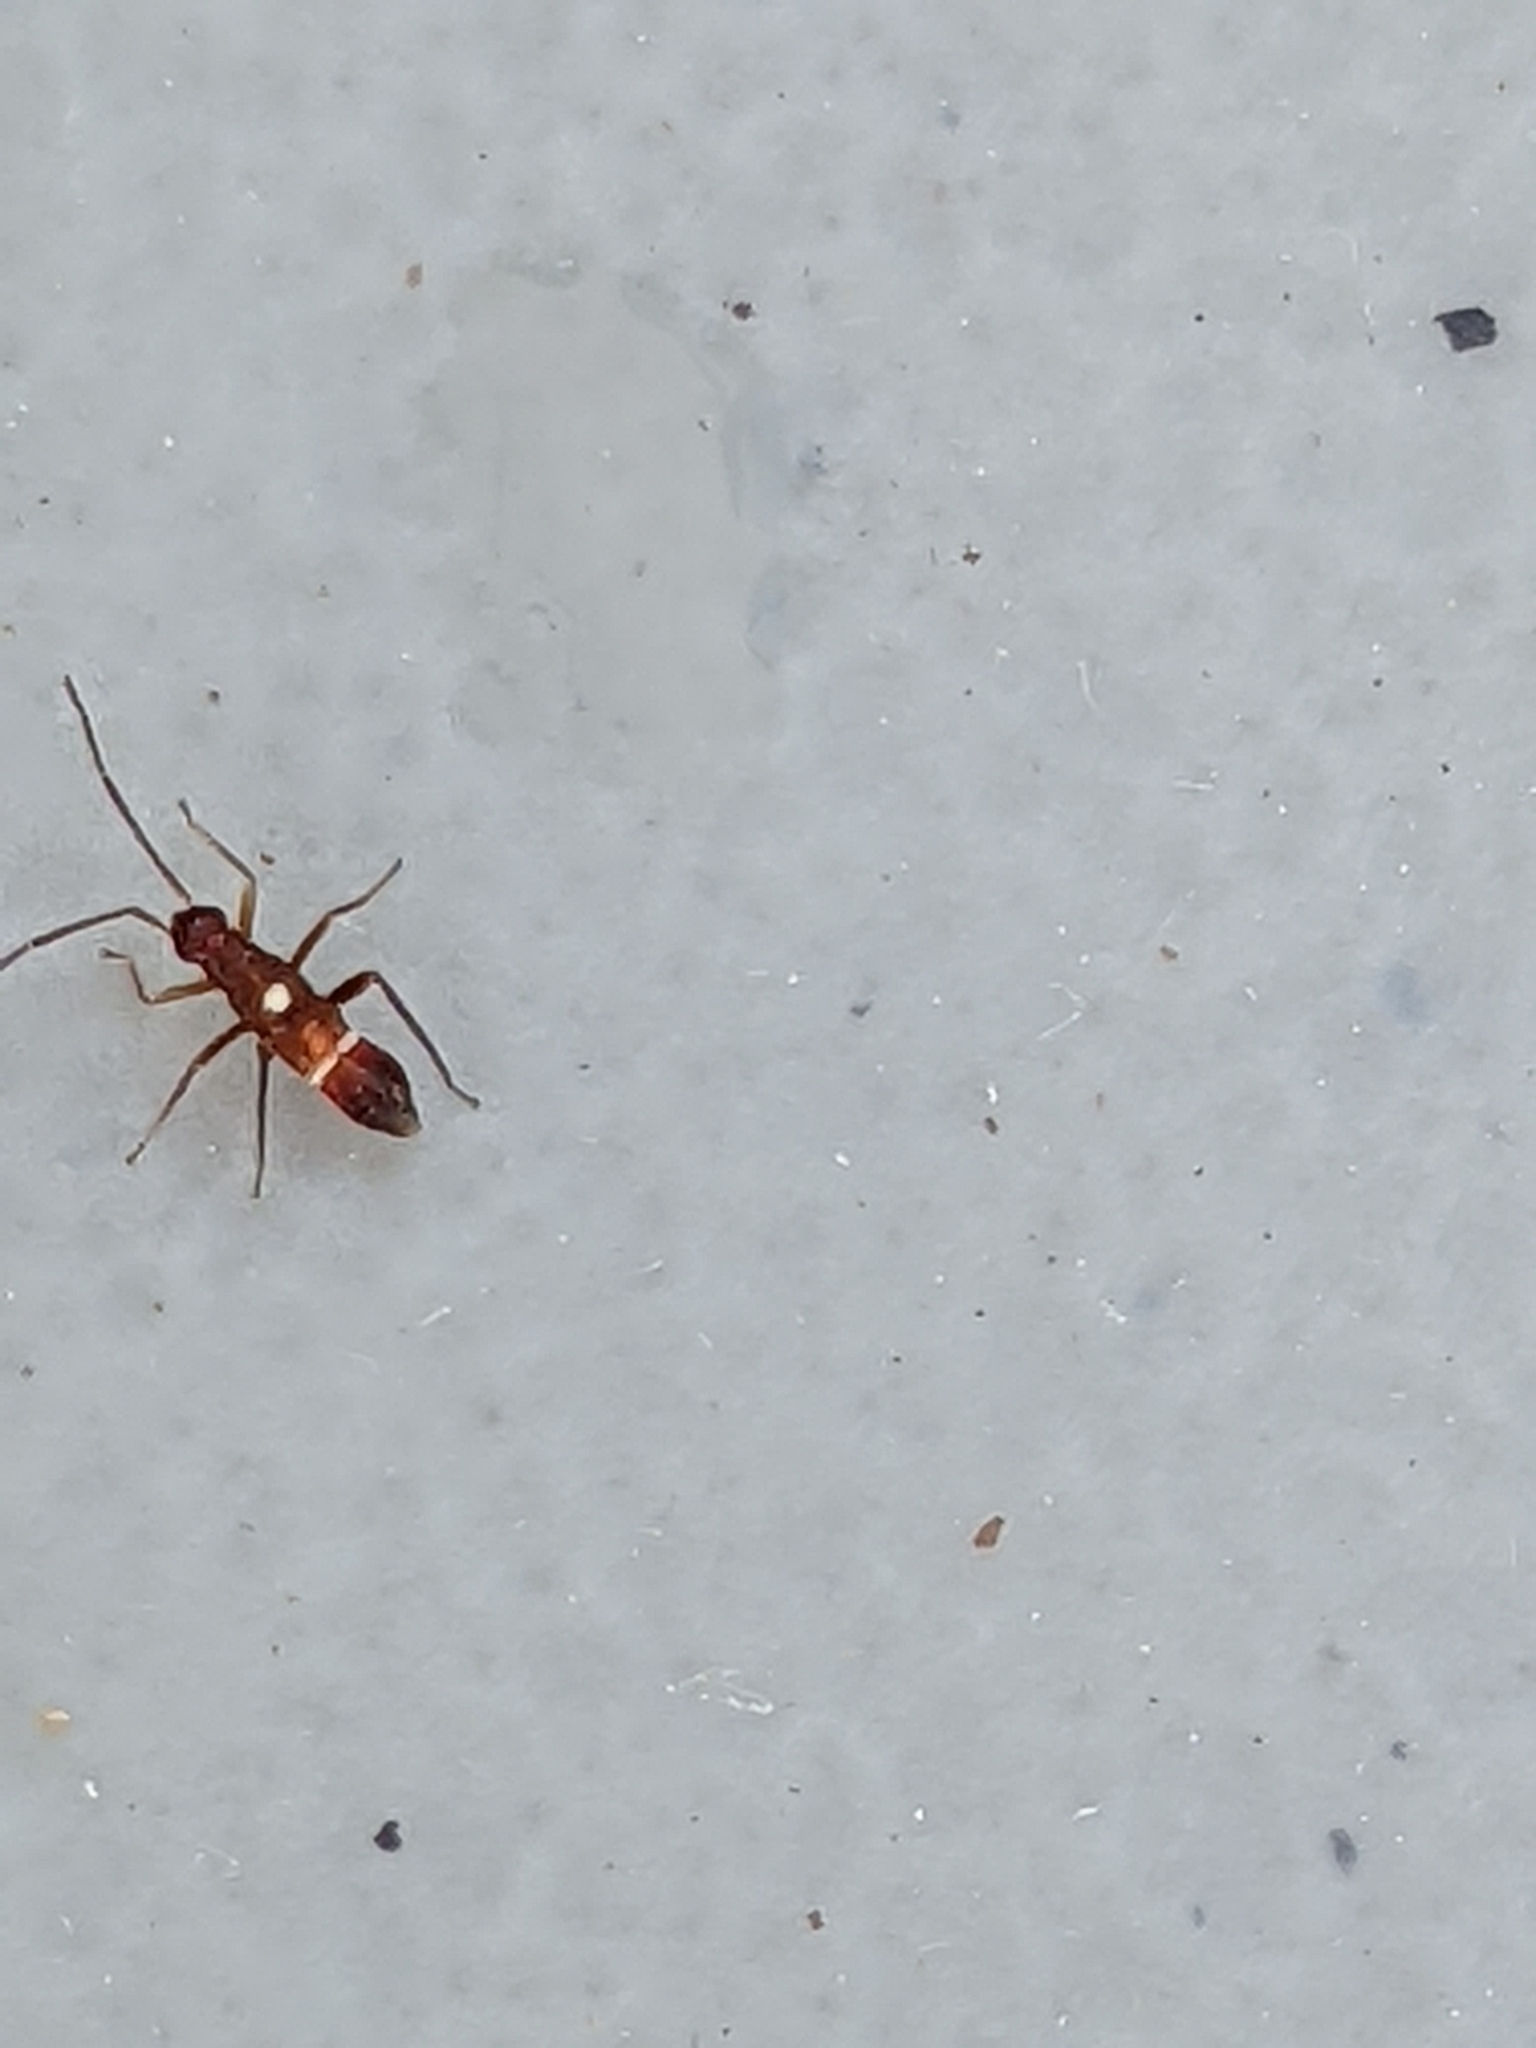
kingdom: Animalia
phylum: Arthropoda
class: Insecta
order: Hemiptera
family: Miridae
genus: Pseudoxenetus
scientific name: Pseudoxenetus regalis
